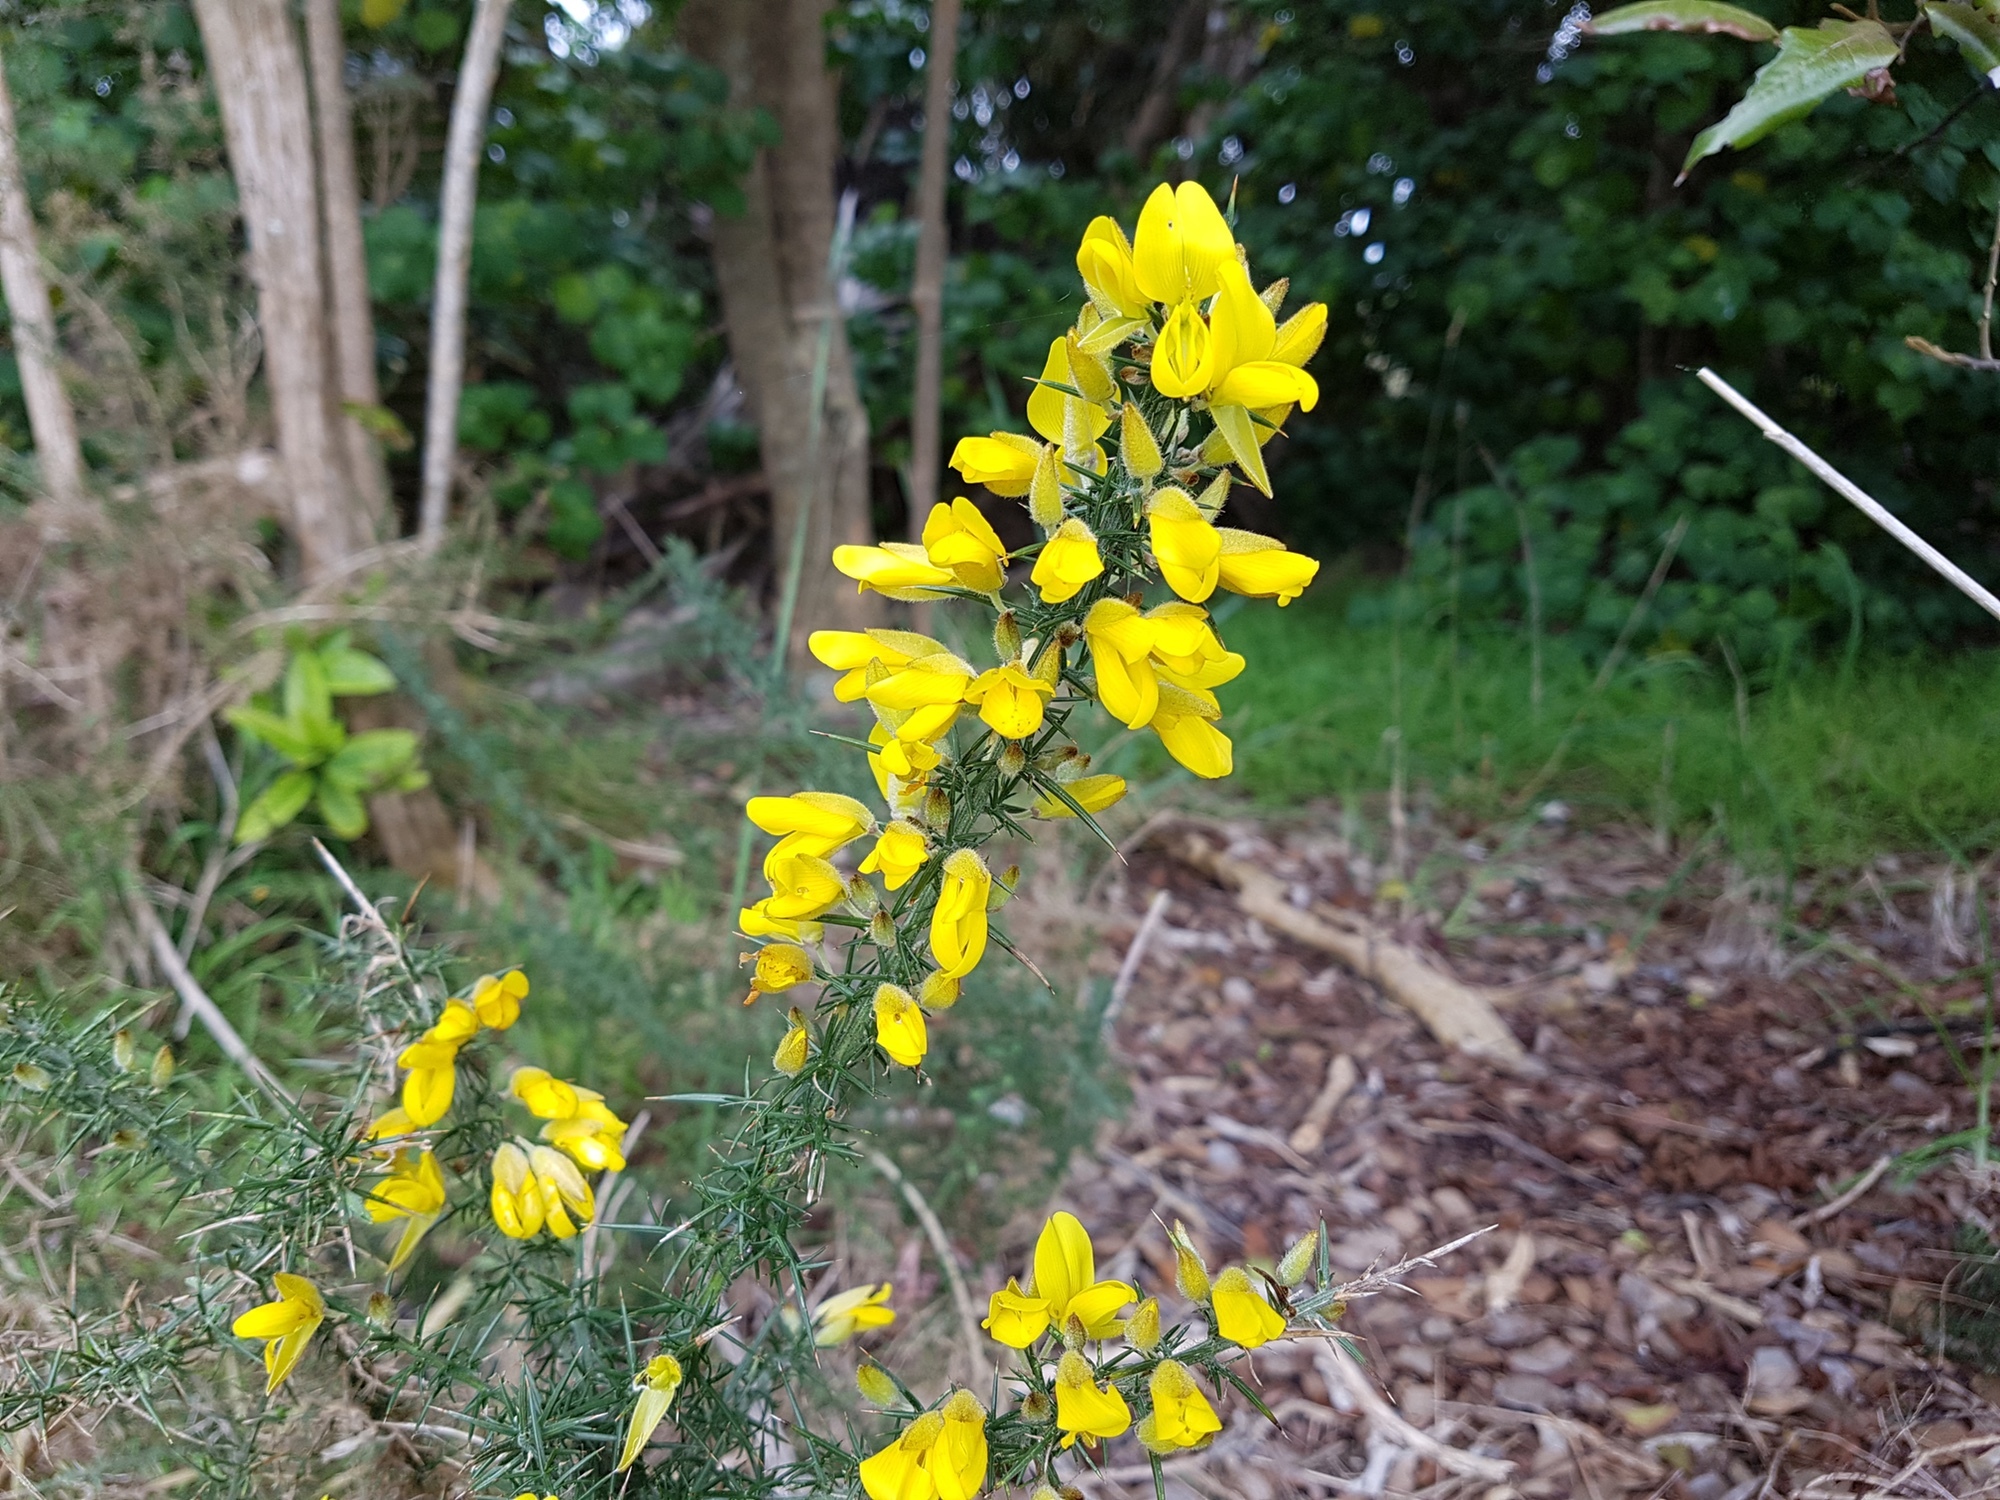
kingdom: Plantae
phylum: Tracheophyta
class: Magnoliopsida
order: Fabales
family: Fabaceae
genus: Ulex
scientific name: Ulex europaeus
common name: Common gorse
